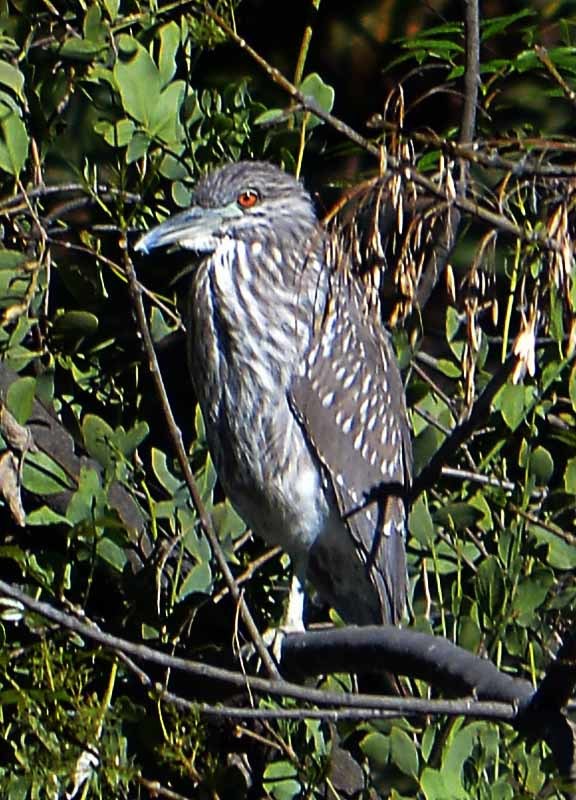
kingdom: Animalia
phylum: Chordata
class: Aves
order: Pelecaniformes
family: Ardeidae
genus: Nycticorax
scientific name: Nycticorax nycticorax
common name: Black-crowned night heron
